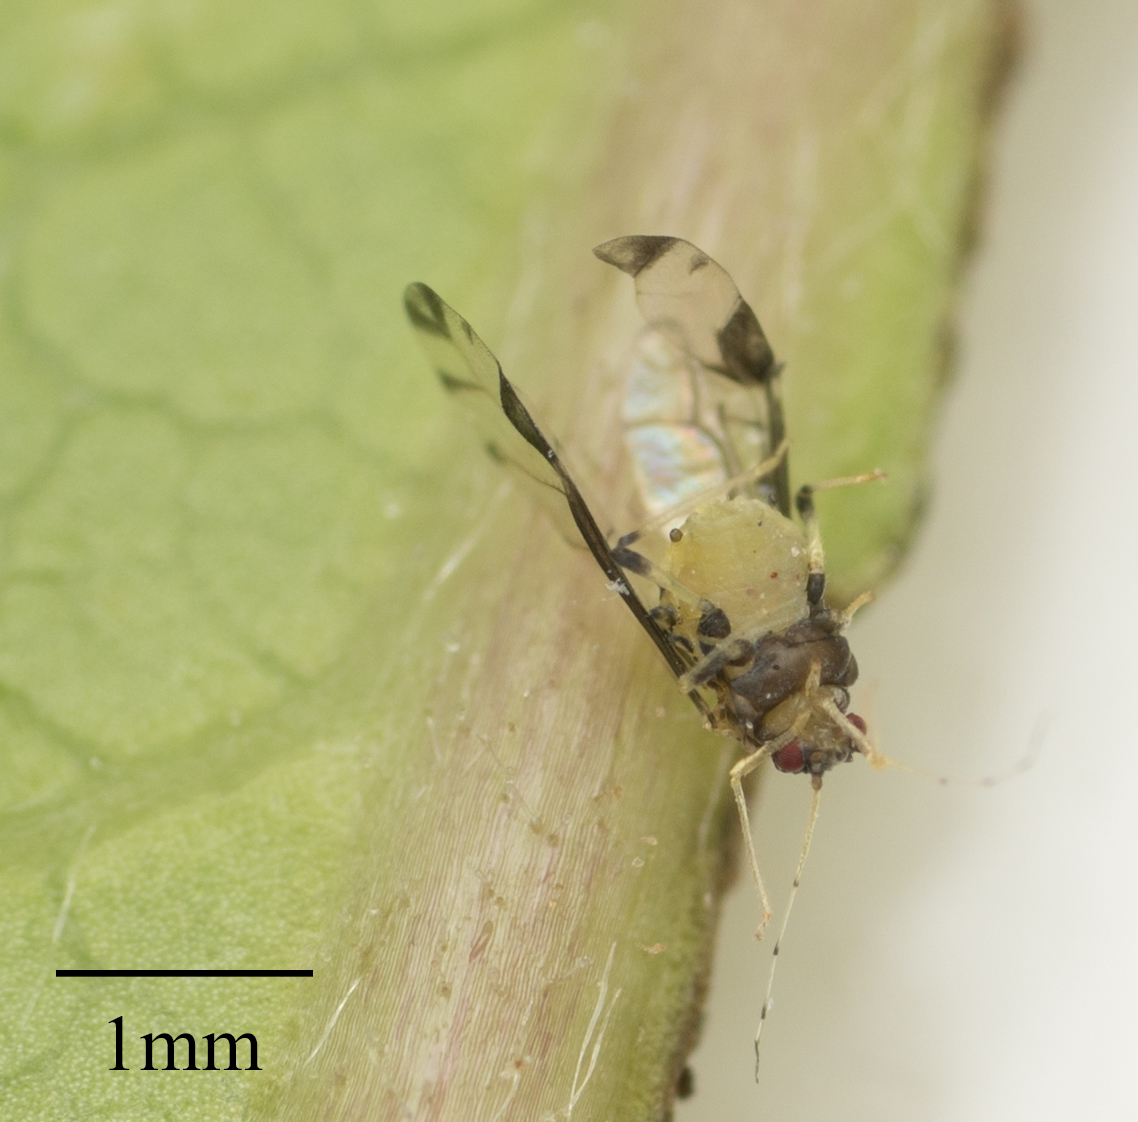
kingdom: Animalia
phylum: Arthropoda
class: Insecta
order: Hemiptera
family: Aphididae
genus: Sarucallis
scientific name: Sarucallis kahawaluokalani
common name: Crapemyrtle aphid
